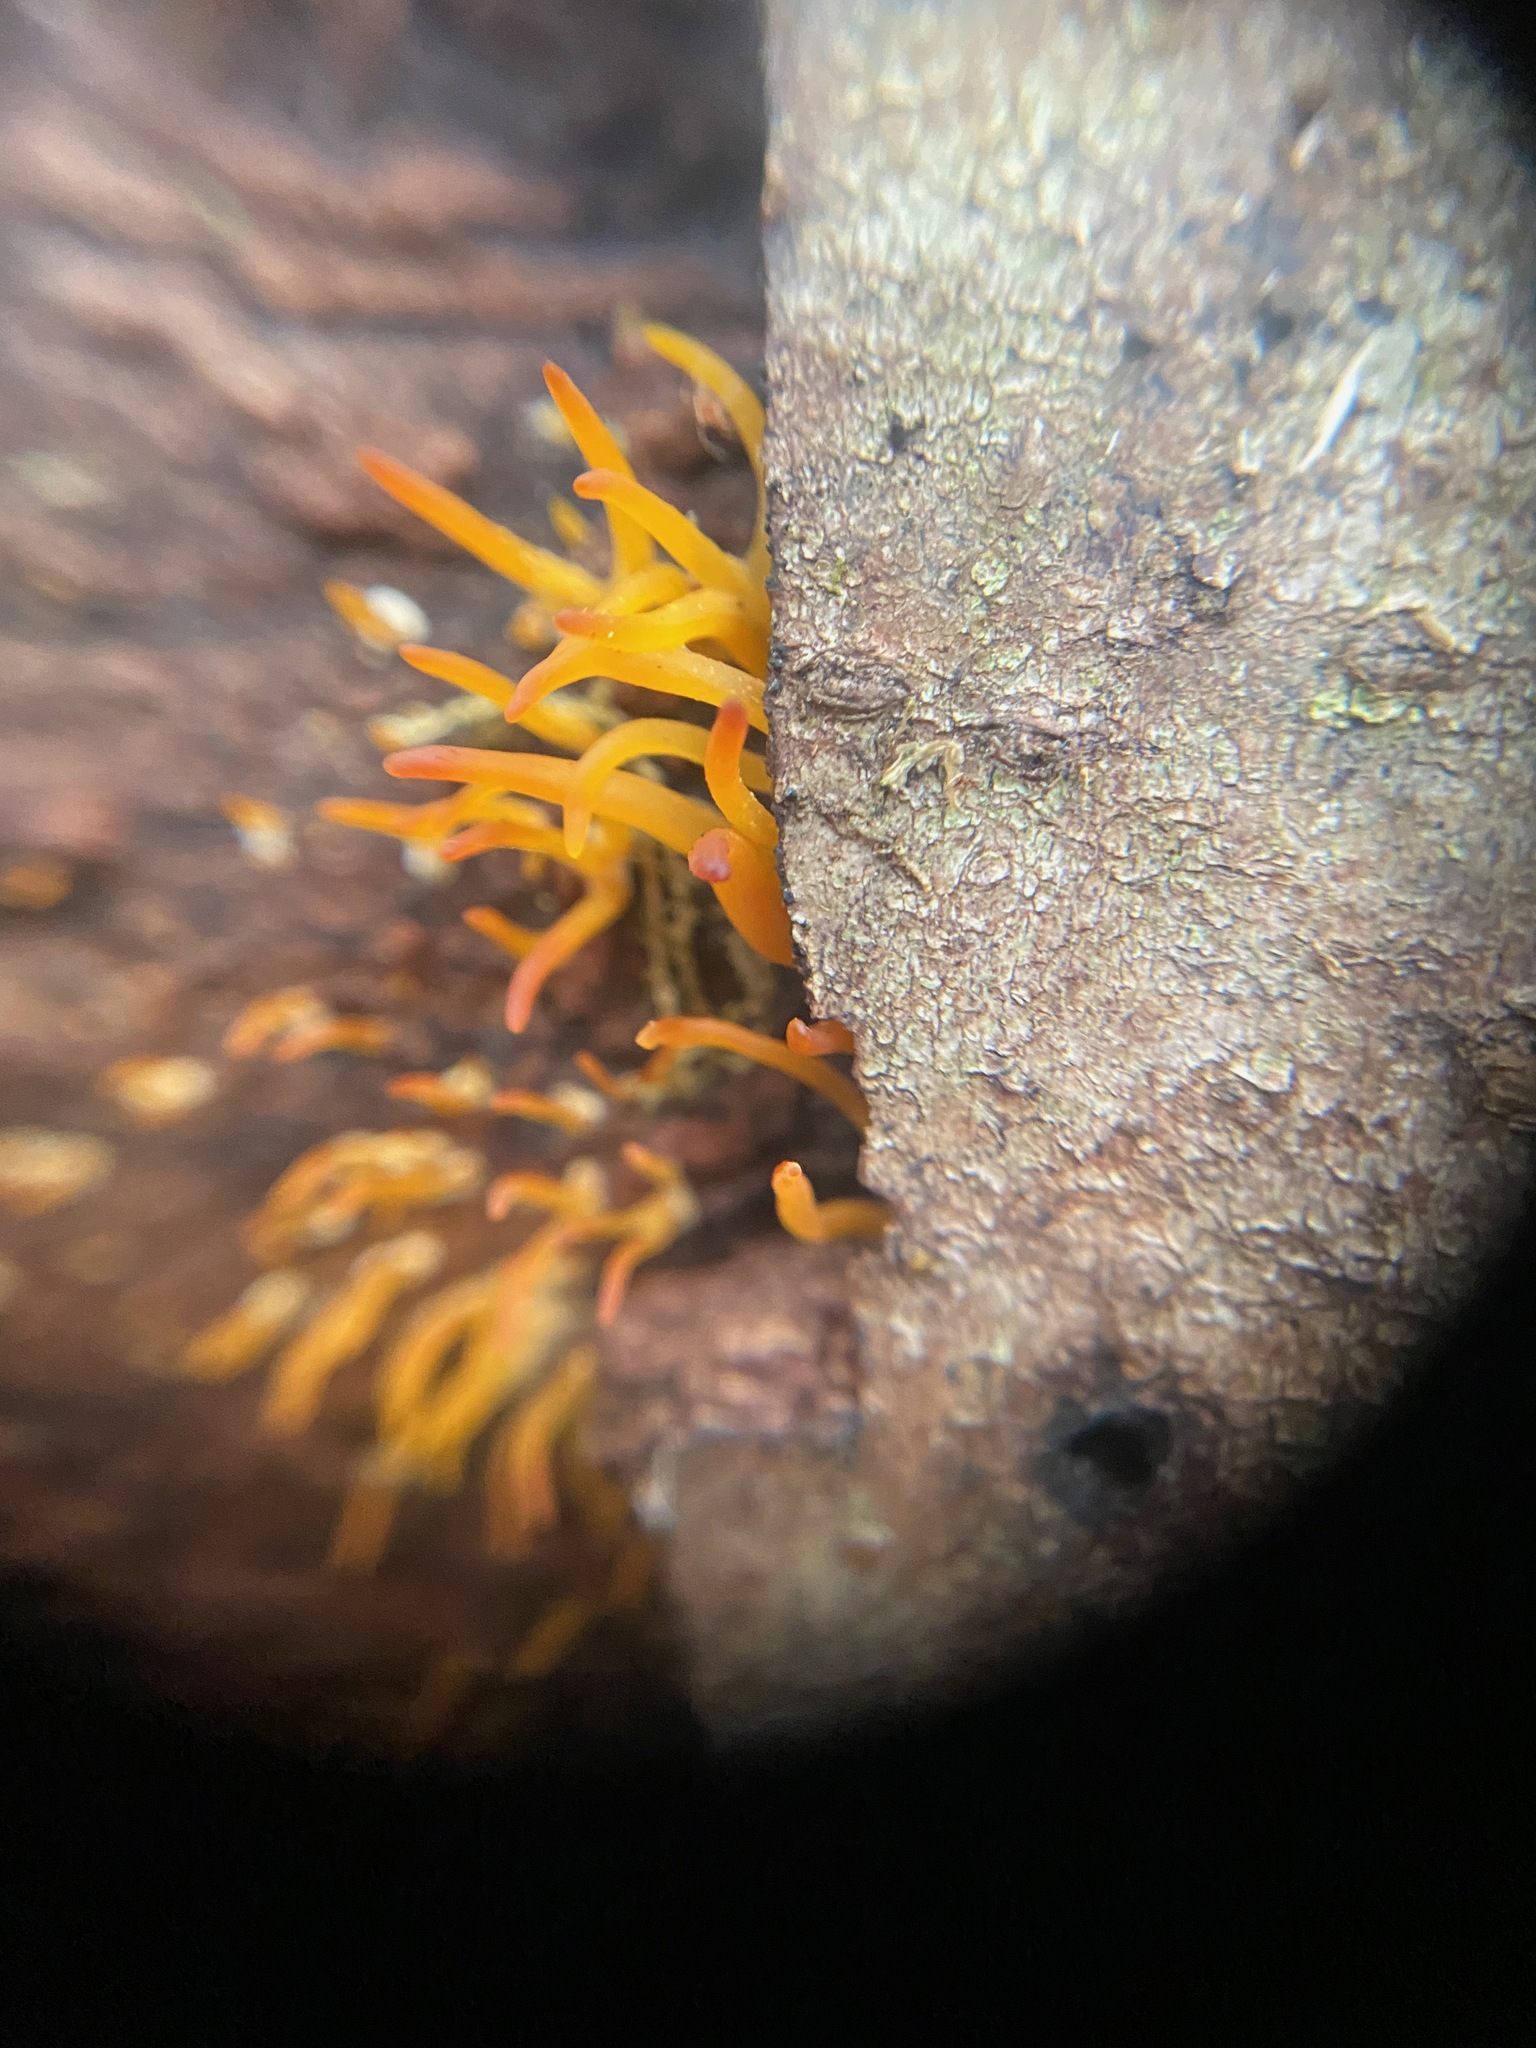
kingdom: Fungi
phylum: Basidiomycota
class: Dacrymycetes
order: Dacrymycetales
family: Dacrymycetaceae
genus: Calocera
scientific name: Calocera cornea
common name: Small stagshorn
